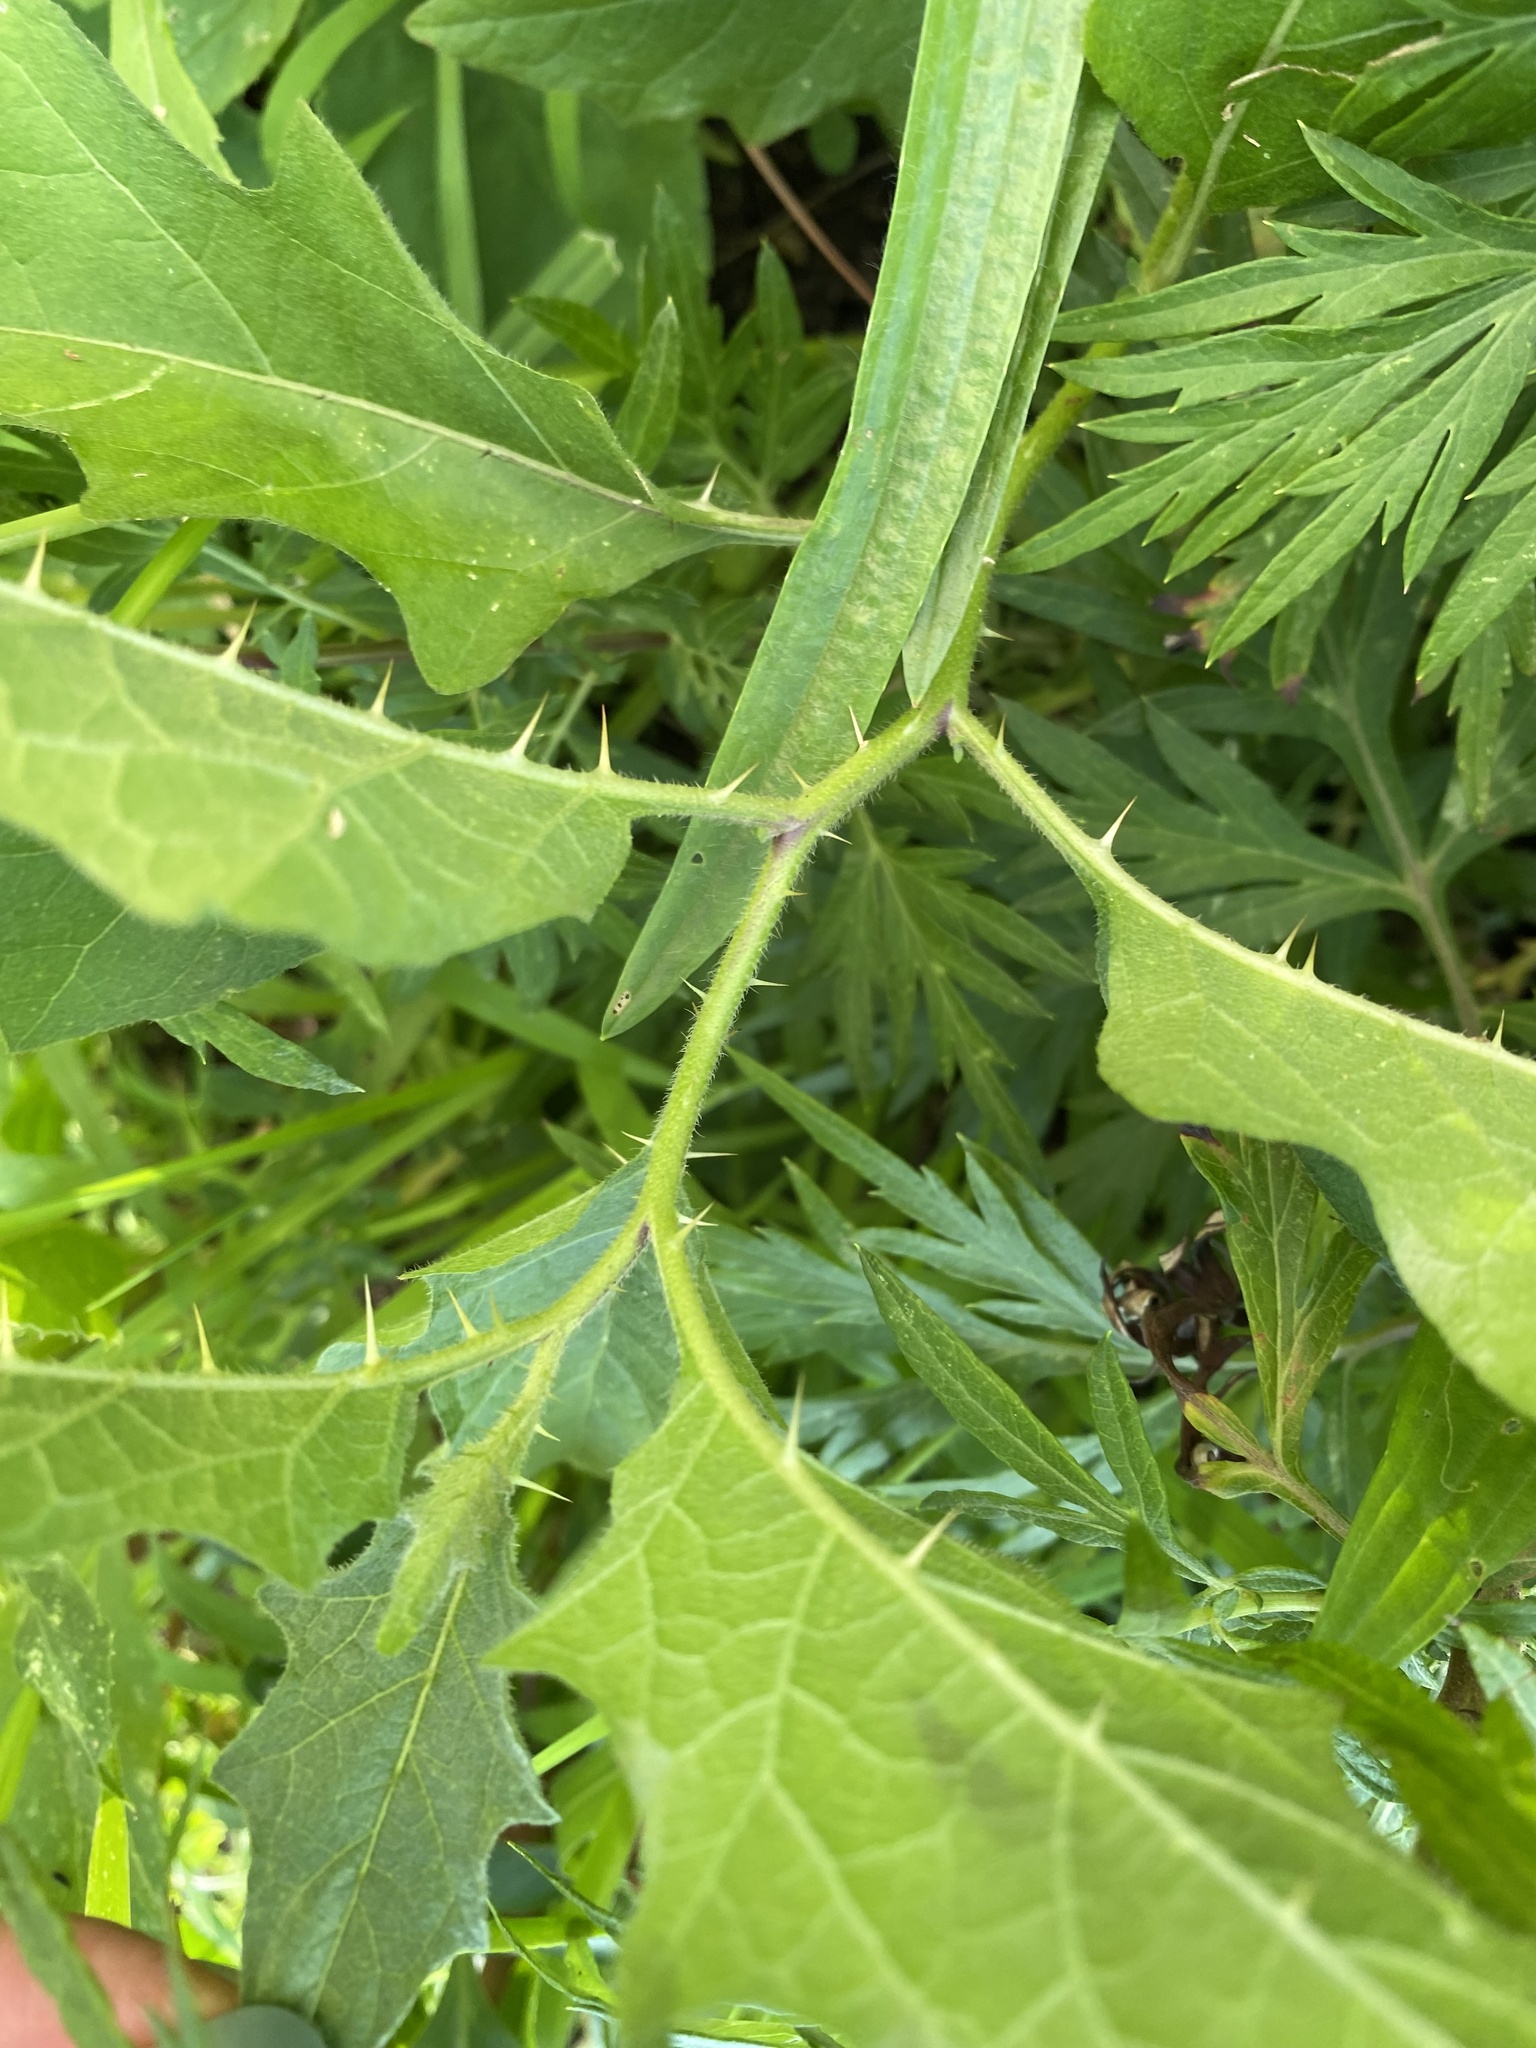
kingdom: Plantae
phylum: Tracheophyta
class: Magnoliopsida
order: Solanales
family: Solanaceae
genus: Solanum
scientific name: Solanum carolinense
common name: Horse-nettle
